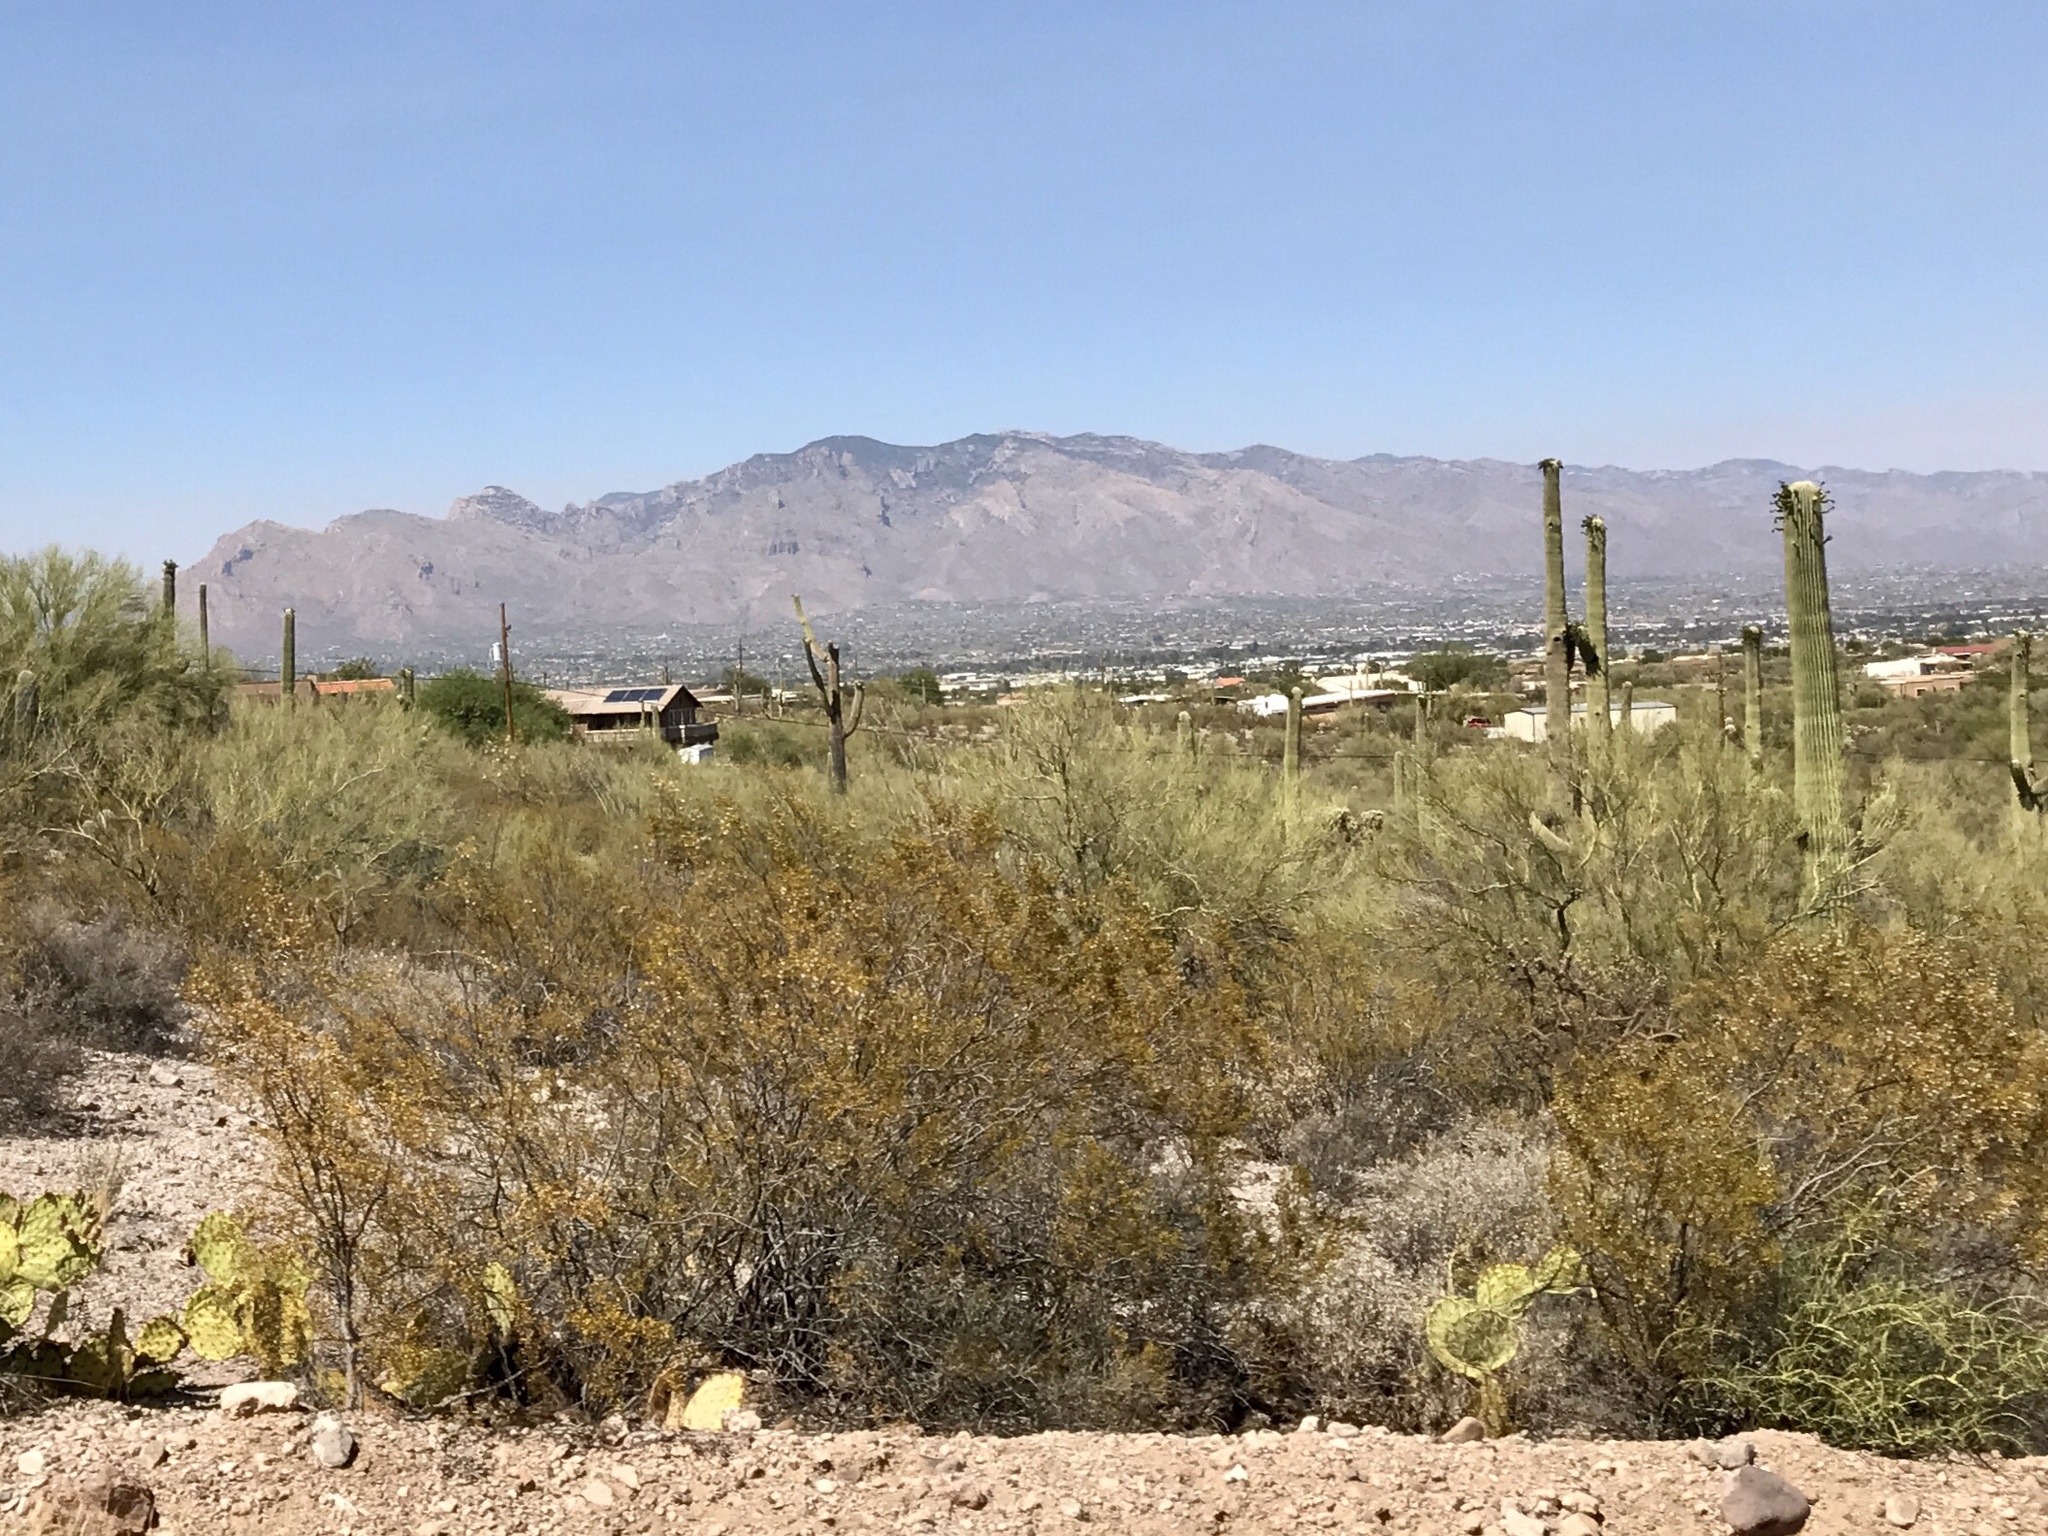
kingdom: Plantae
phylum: Tracheophyta
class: Magnoliopsida
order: Zygophyllales
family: Zygophyllaceae
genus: Larrea
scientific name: Larrea tridentata
